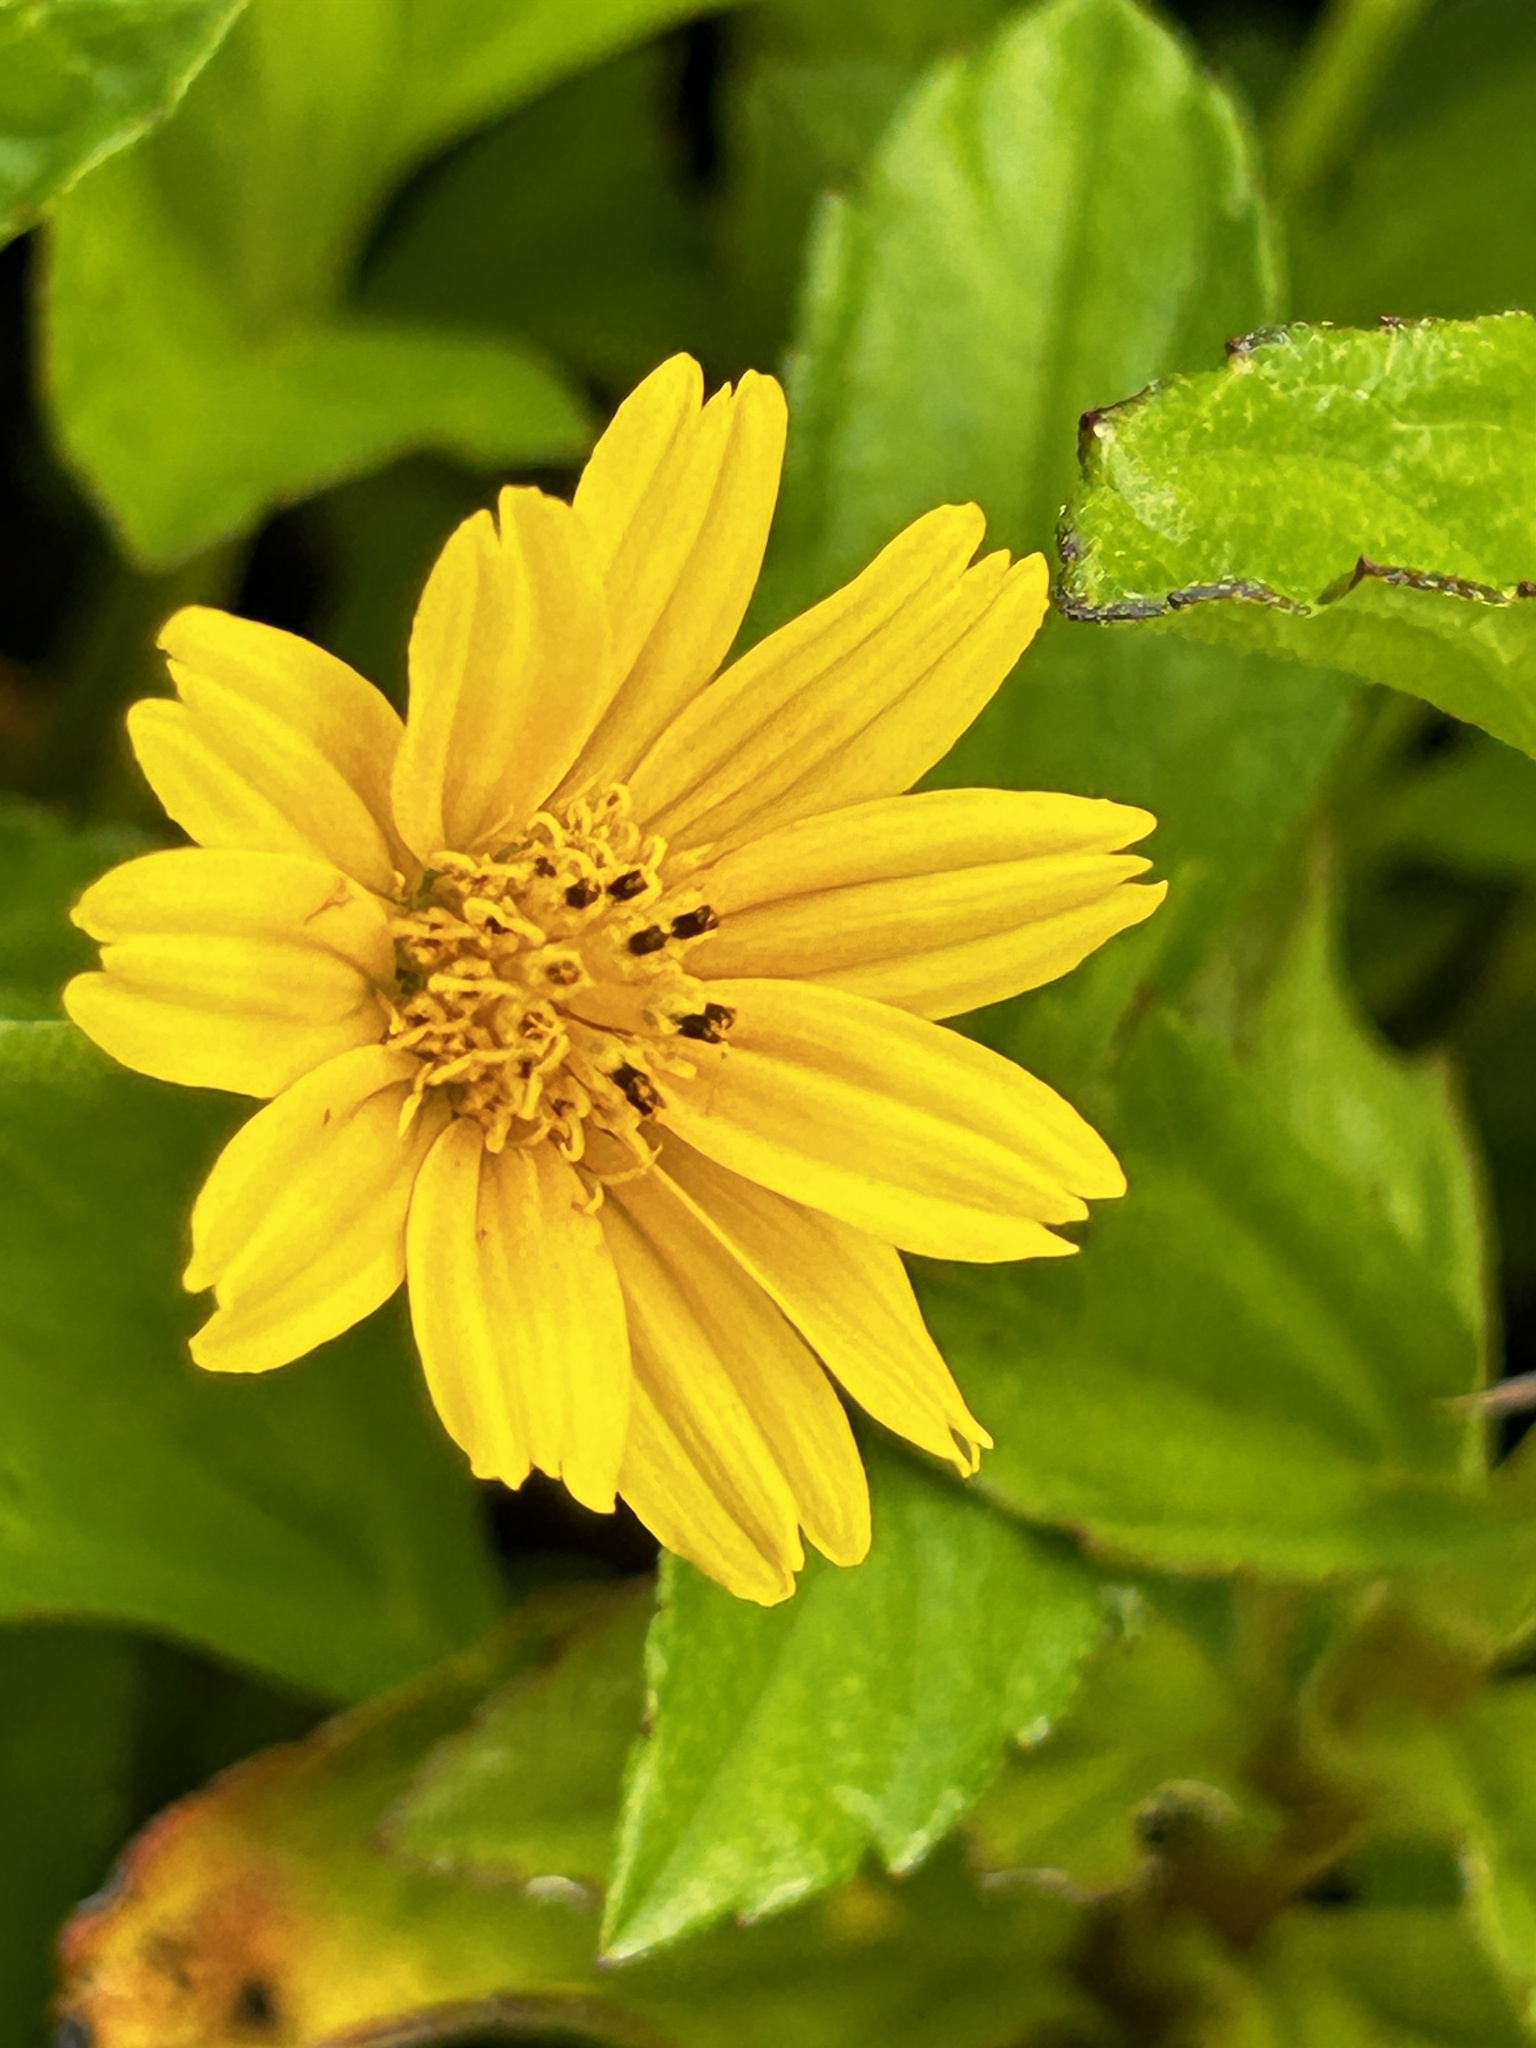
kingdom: Plantae
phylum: Tracheophyta
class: Magnoliopsida
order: Asterales
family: Asteraceae
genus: Sphagneticola
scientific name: Sphagneticola trilobata
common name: Bay biscayne creeping-oxeye
